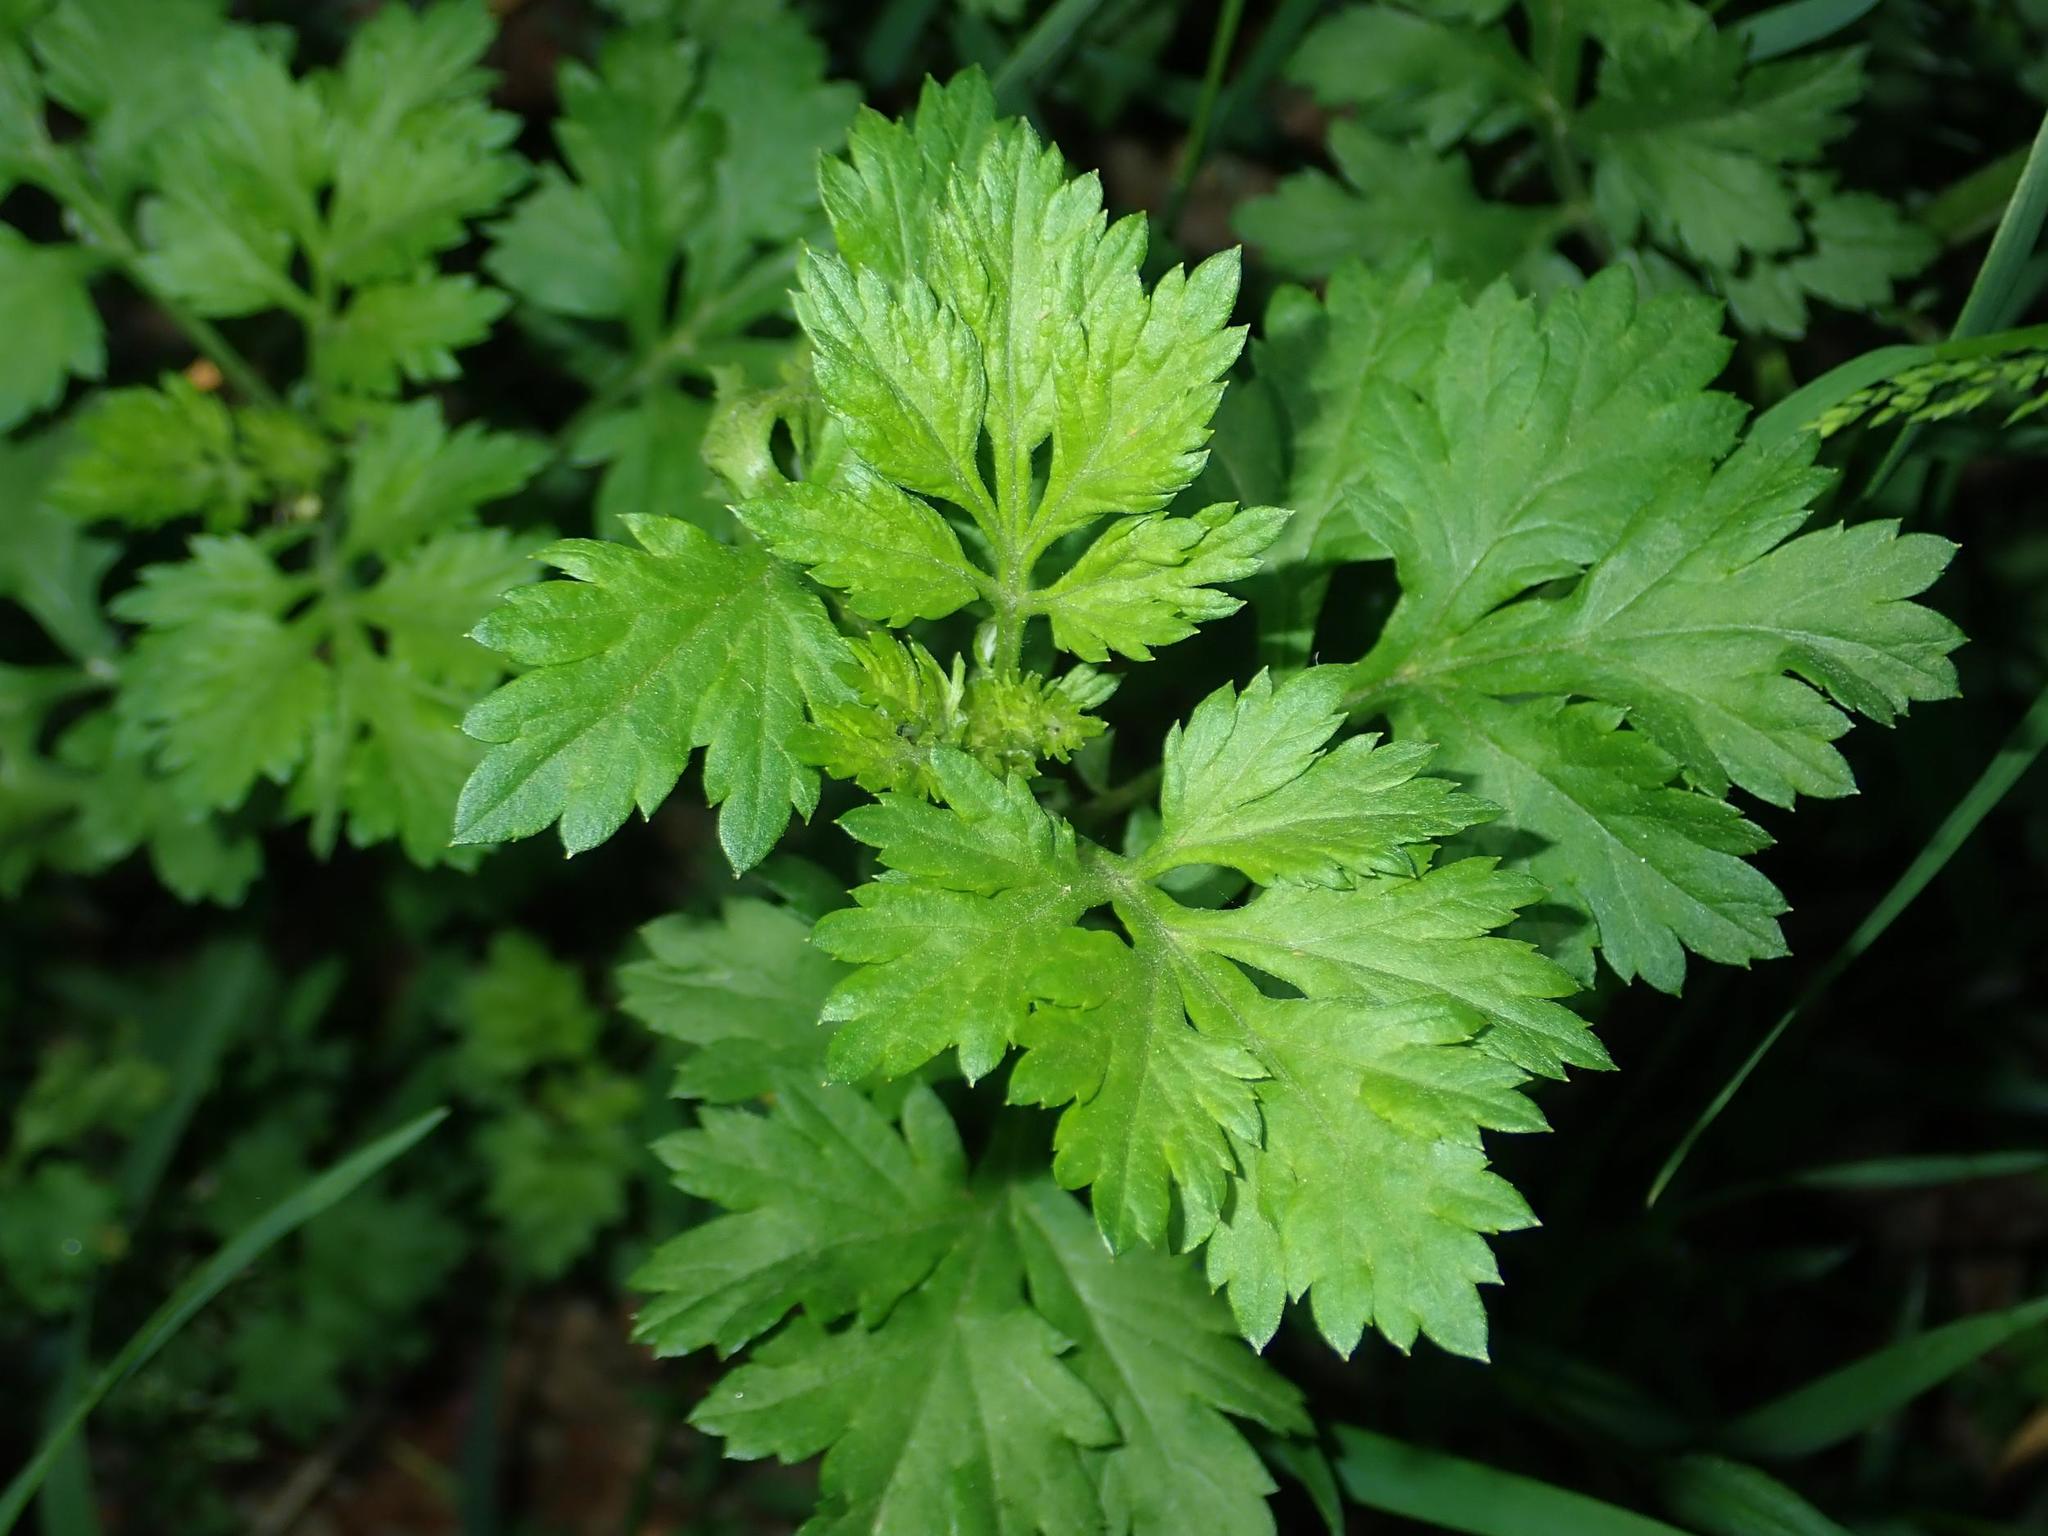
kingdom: Plantae
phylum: Tracheophyta
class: Magnoliopsida
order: Asterales
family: Asteraceae
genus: Artemisia
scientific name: Artemisia vulgaris
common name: Mugwort
